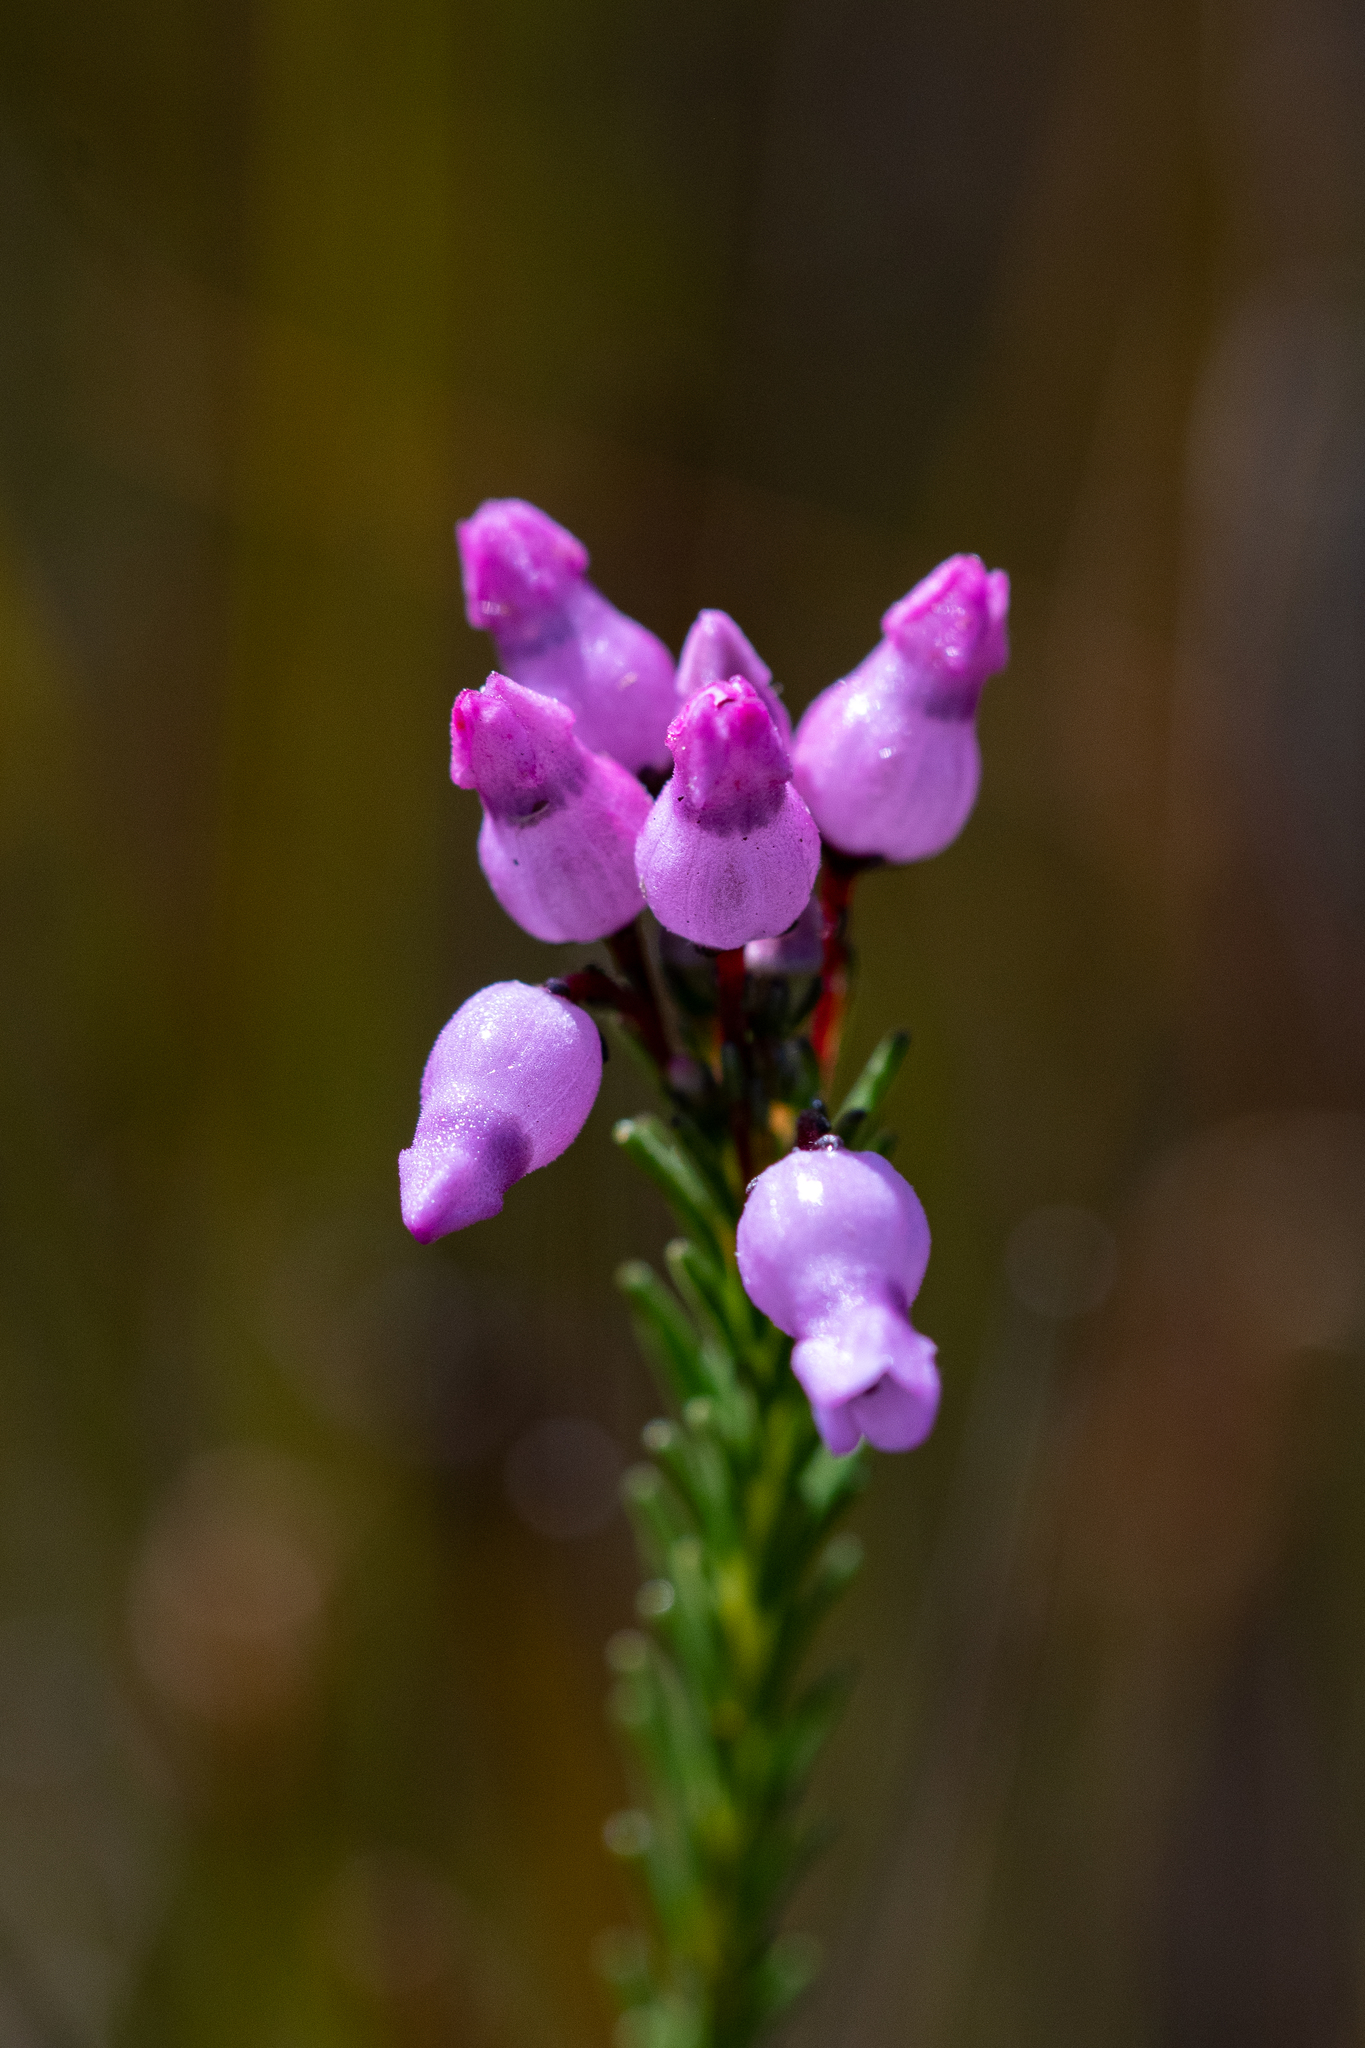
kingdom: Plantae
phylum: Tracheophyta
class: Magnoliopsida
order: Ericales
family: Ericaceae
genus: Erica
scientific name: Erica obliqua
